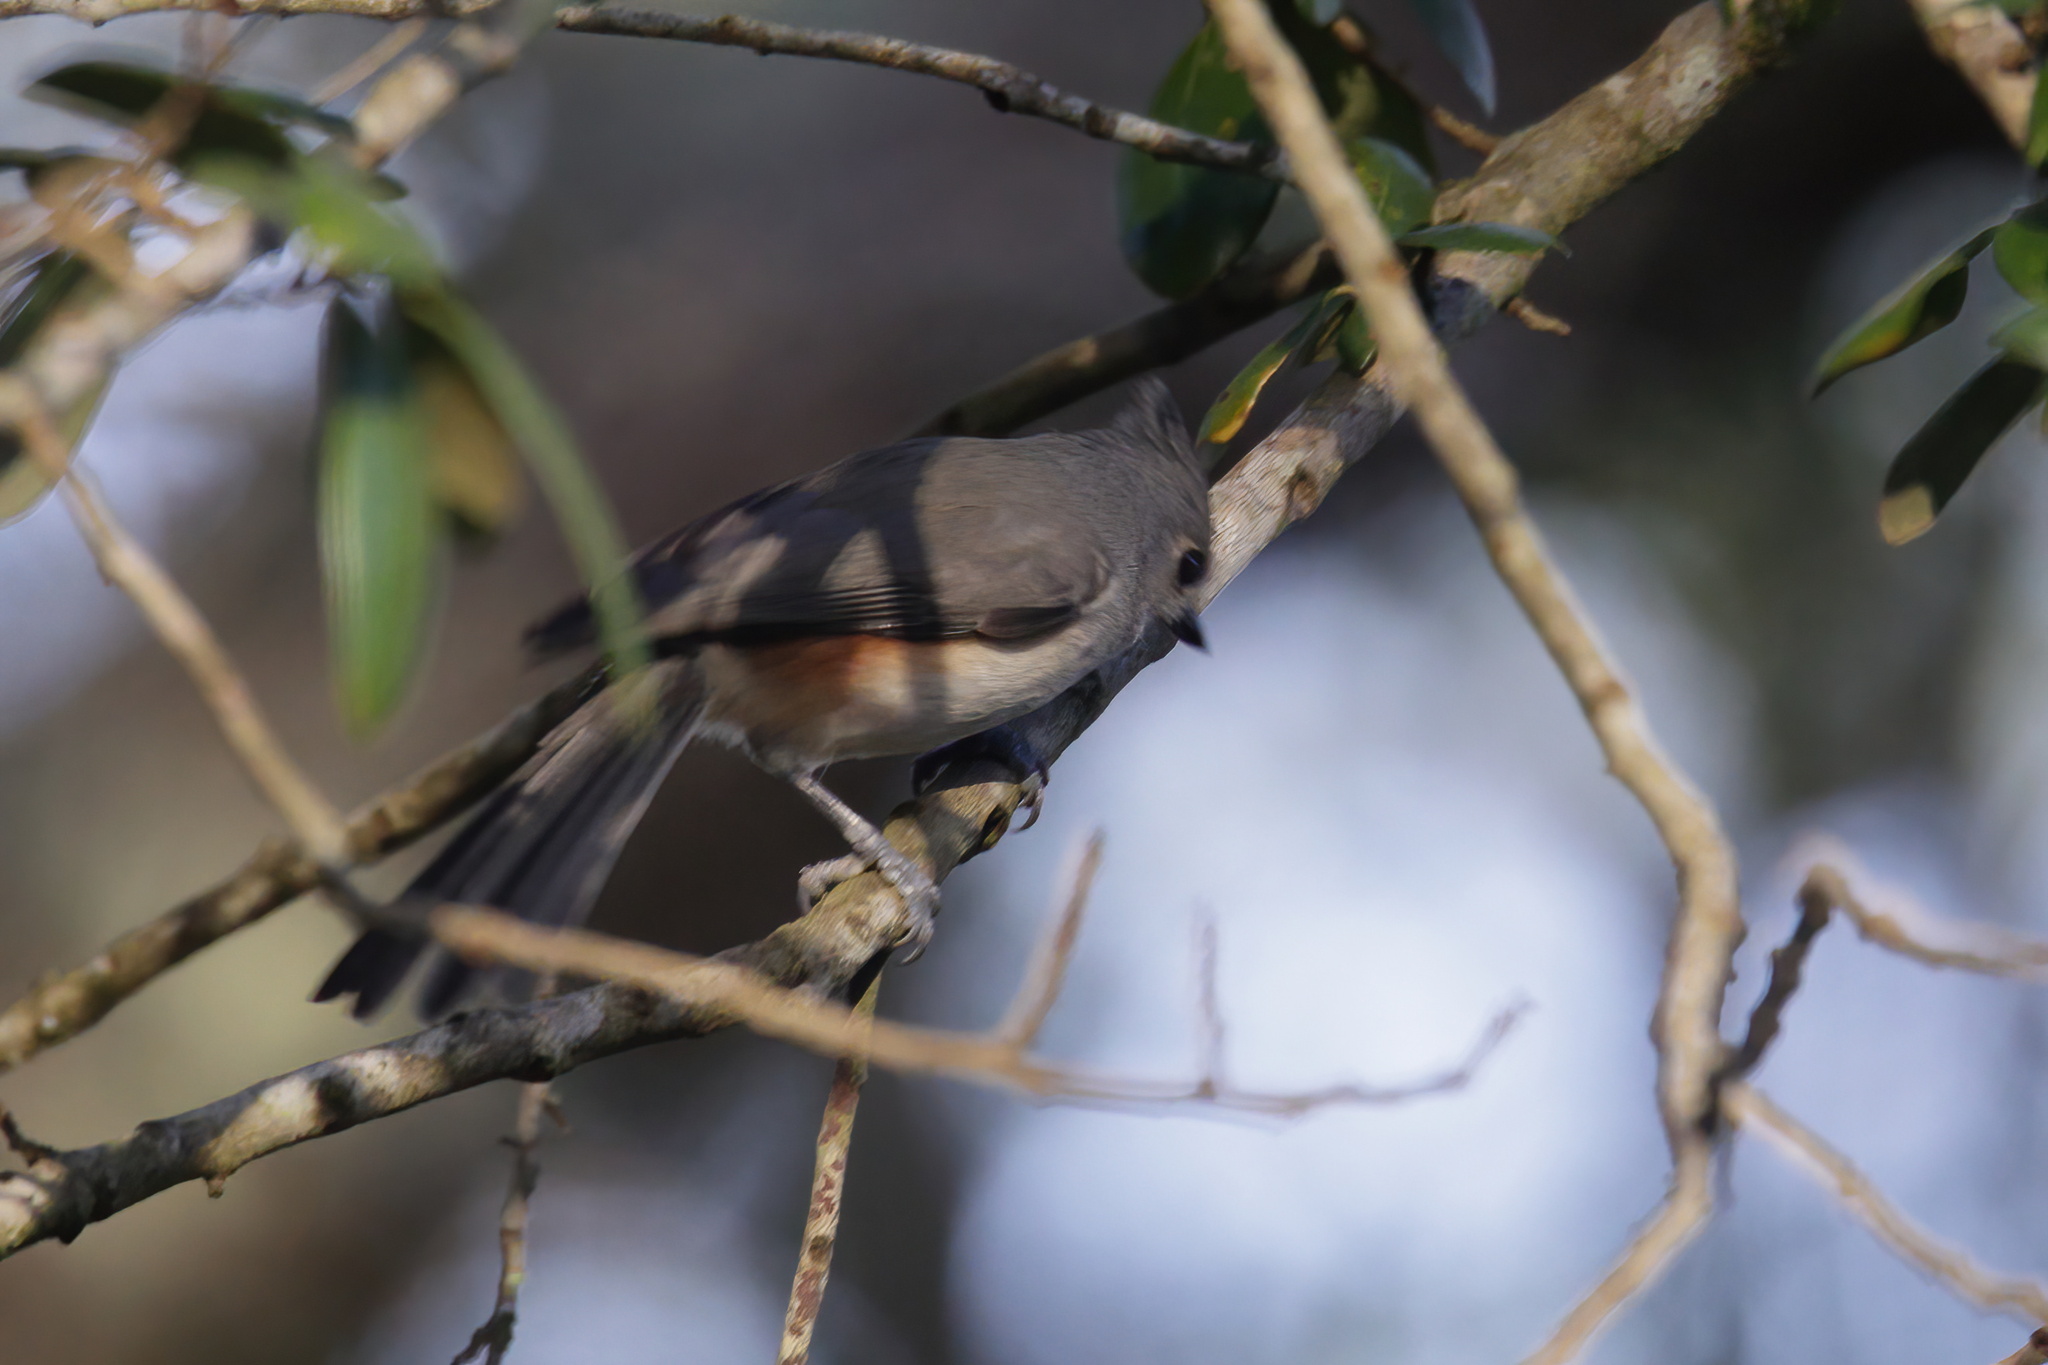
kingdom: Animalia
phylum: Chordata
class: Aves
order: Passeriformes
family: Paridae
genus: Baeolophus
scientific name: Baeolophus bicolor
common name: Tufted titmouse
